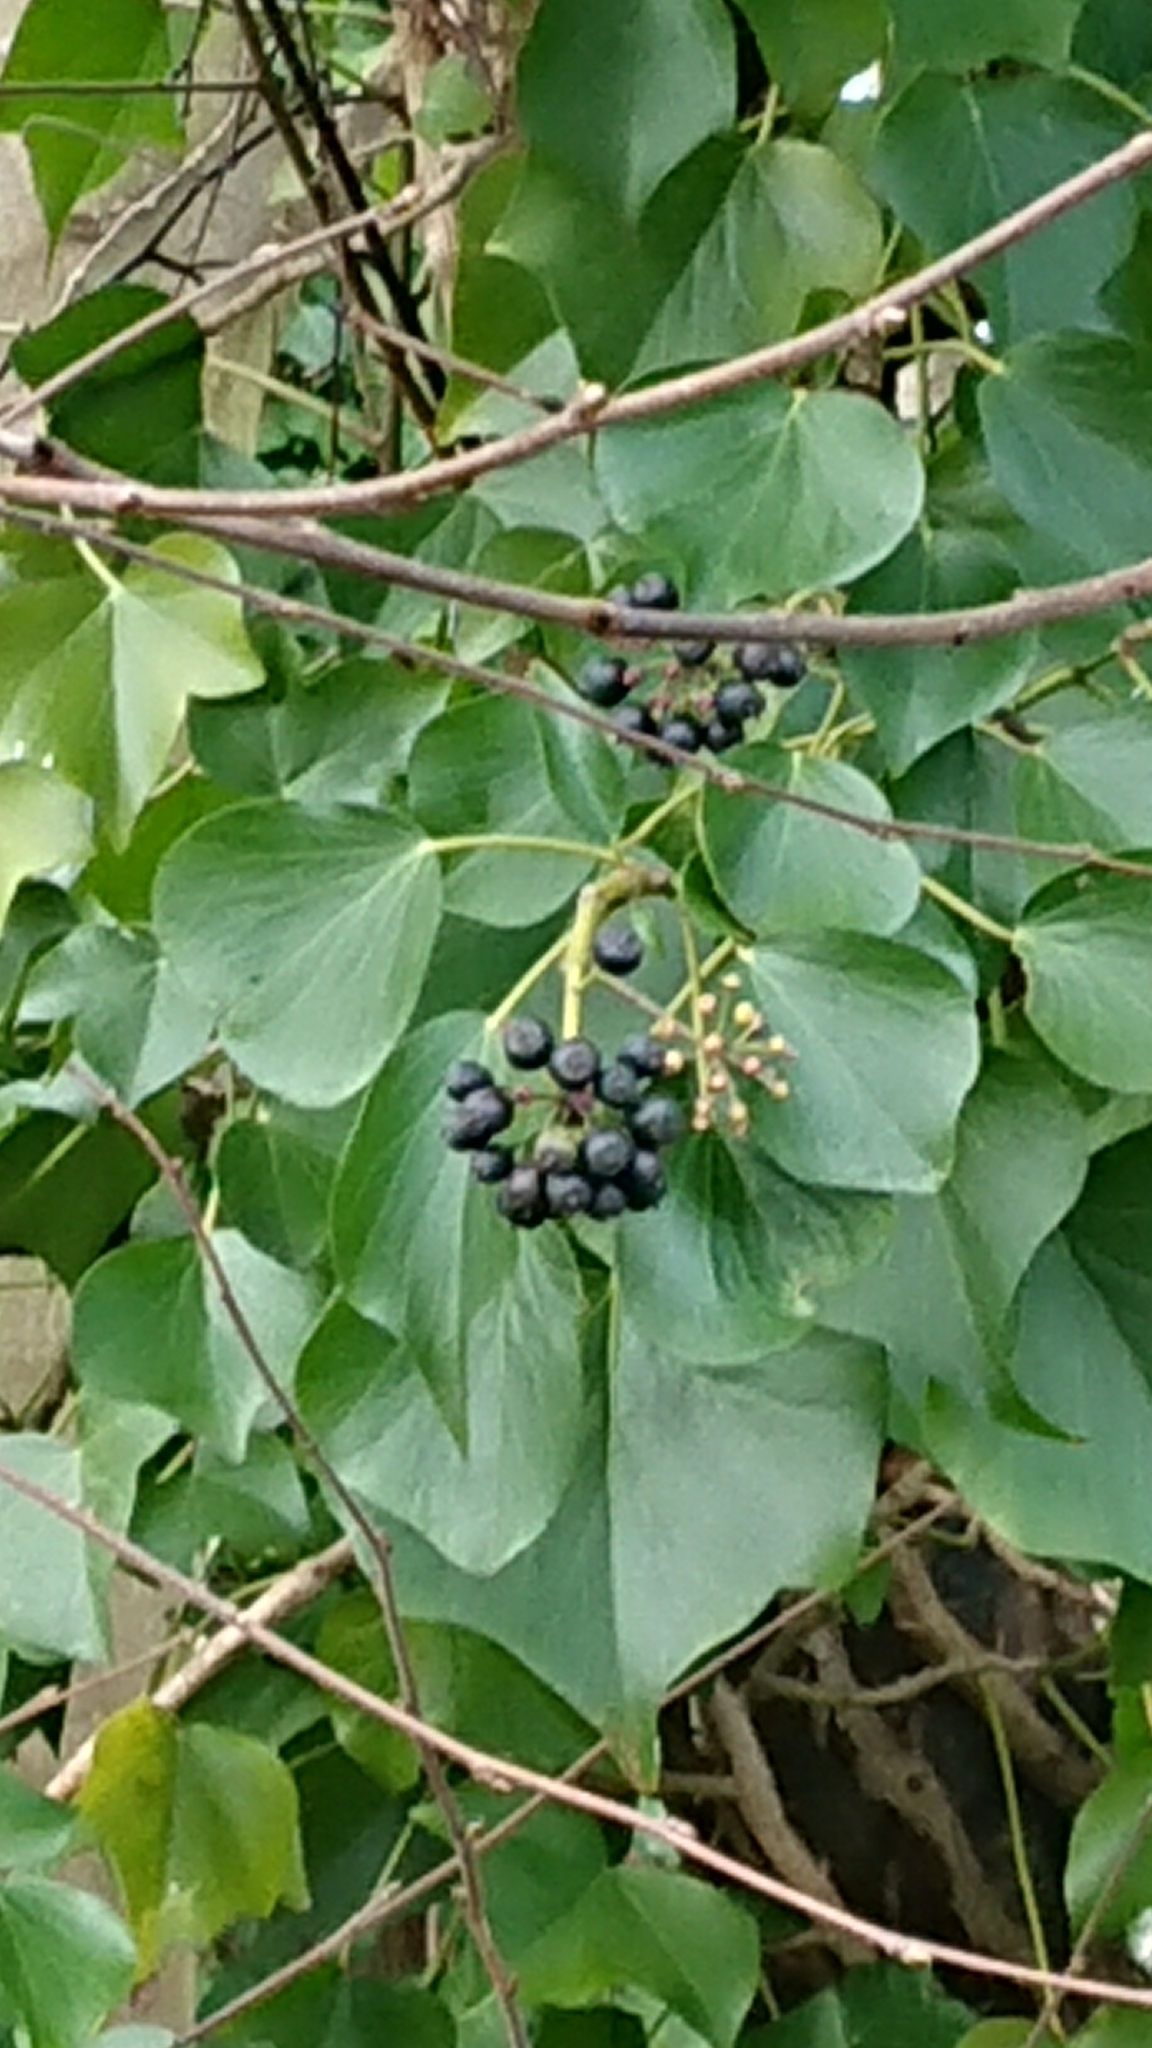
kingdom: Plantae
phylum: Tracheophyta
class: Magnoliopsida
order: Apiales
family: Araliaceae
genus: Hedera
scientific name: Hedera helix
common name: Ivy
